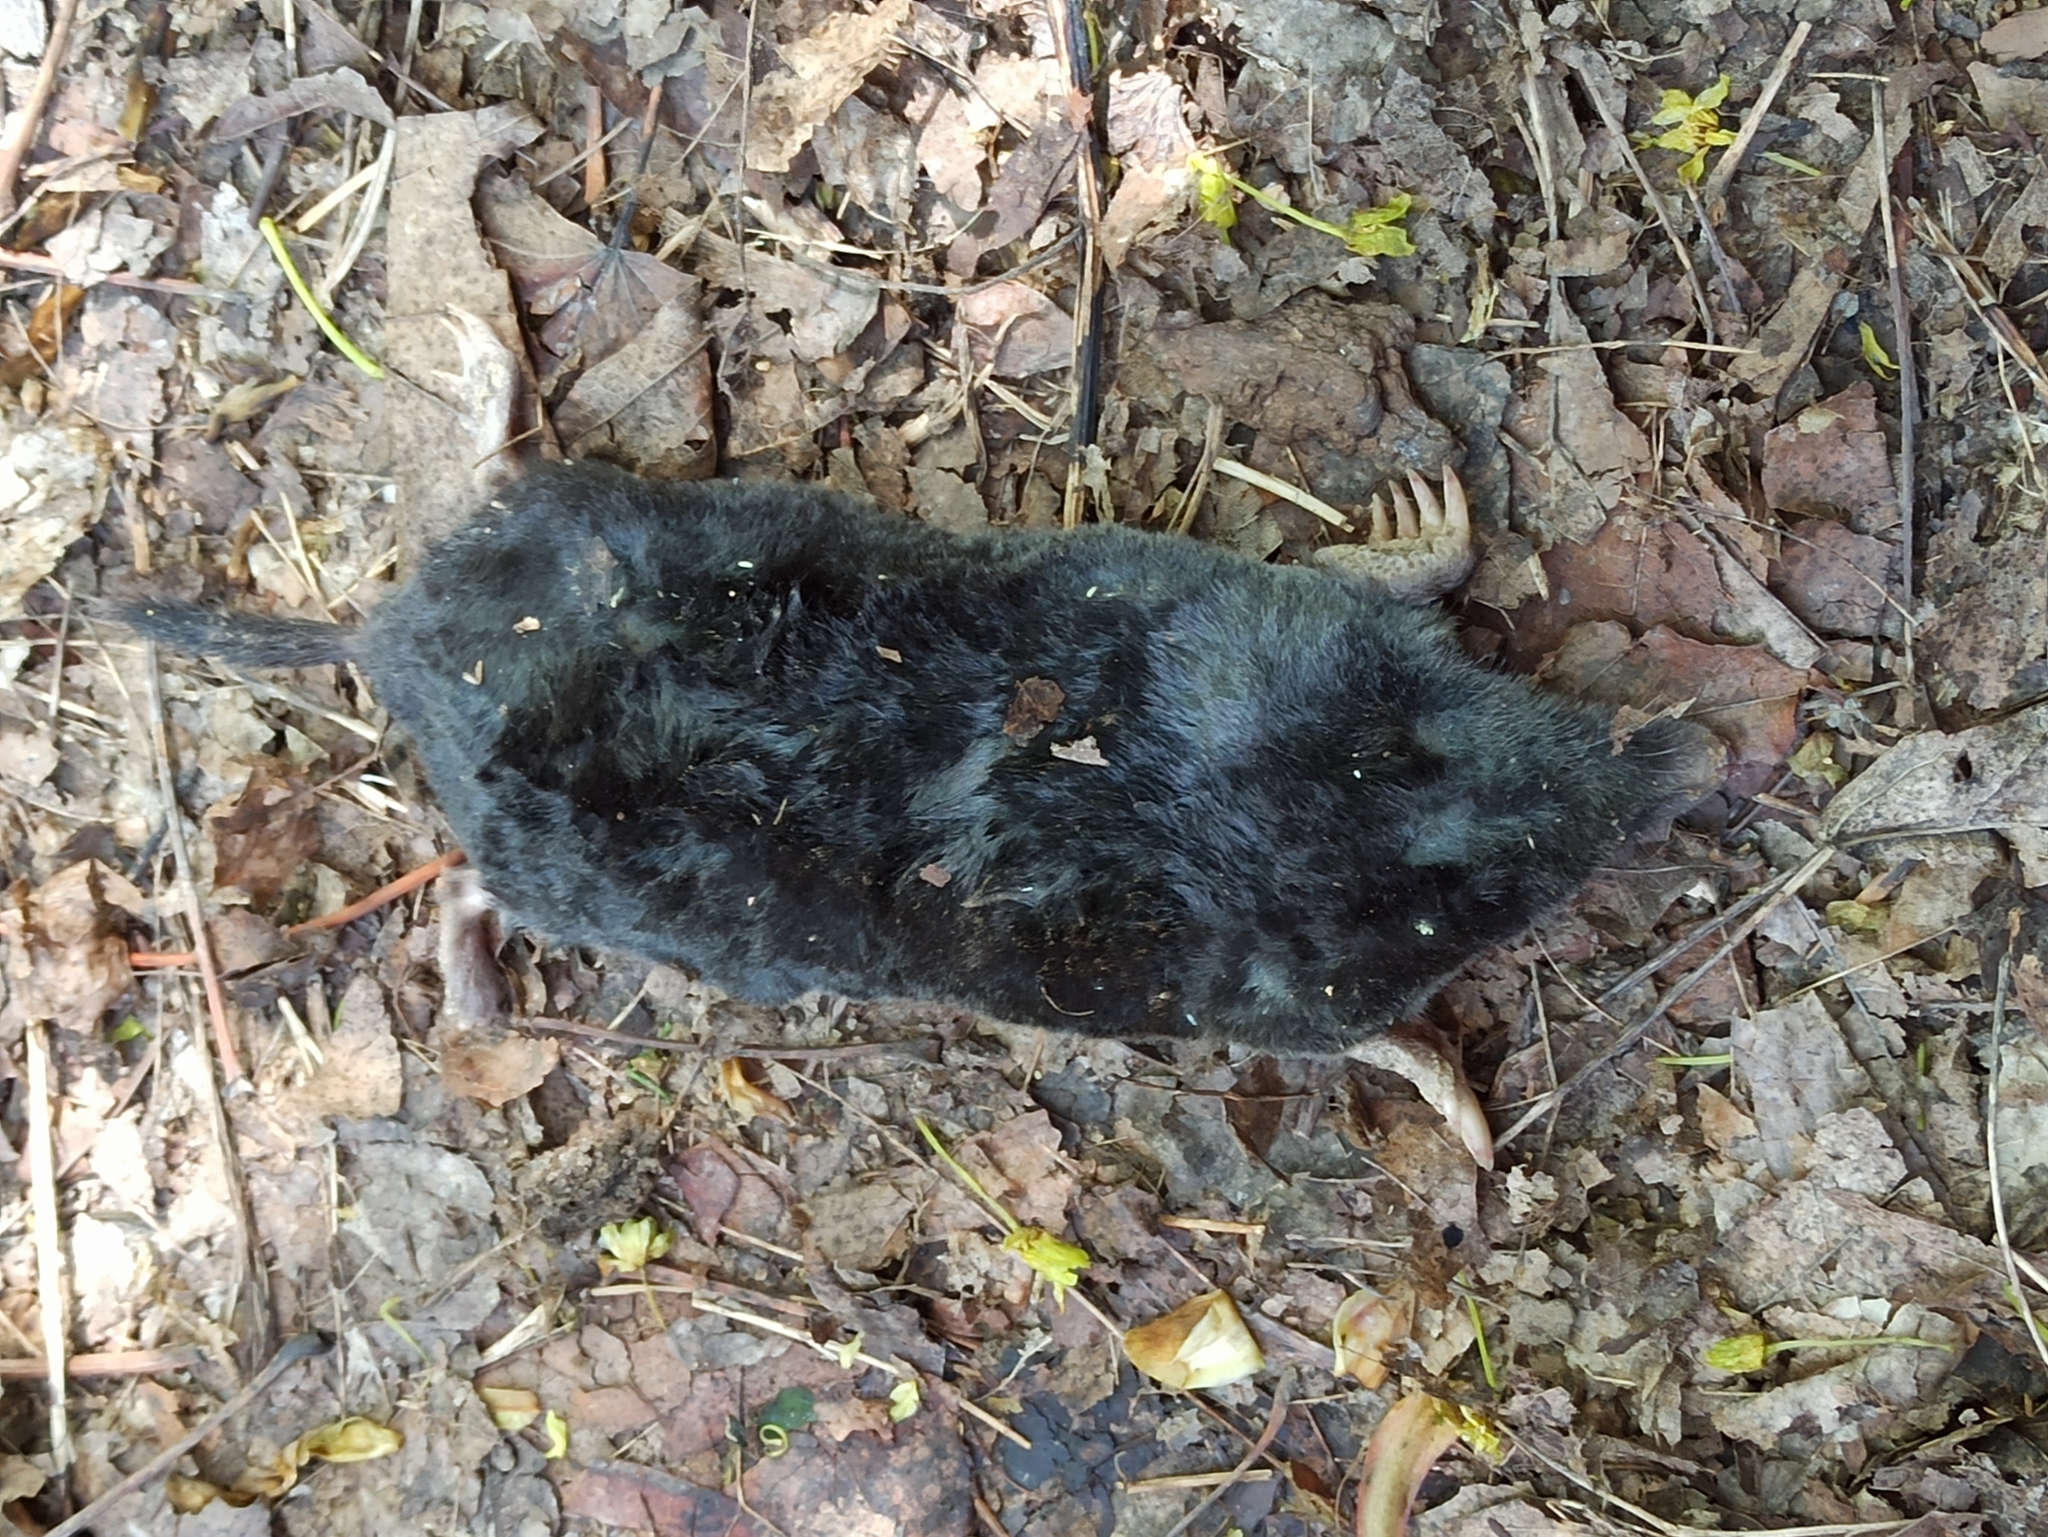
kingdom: Animalia
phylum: Chordata
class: Mammalia
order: Soricomorpha
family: Talpidae
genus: Talpa
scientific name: Talpa europaea
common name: European mole
